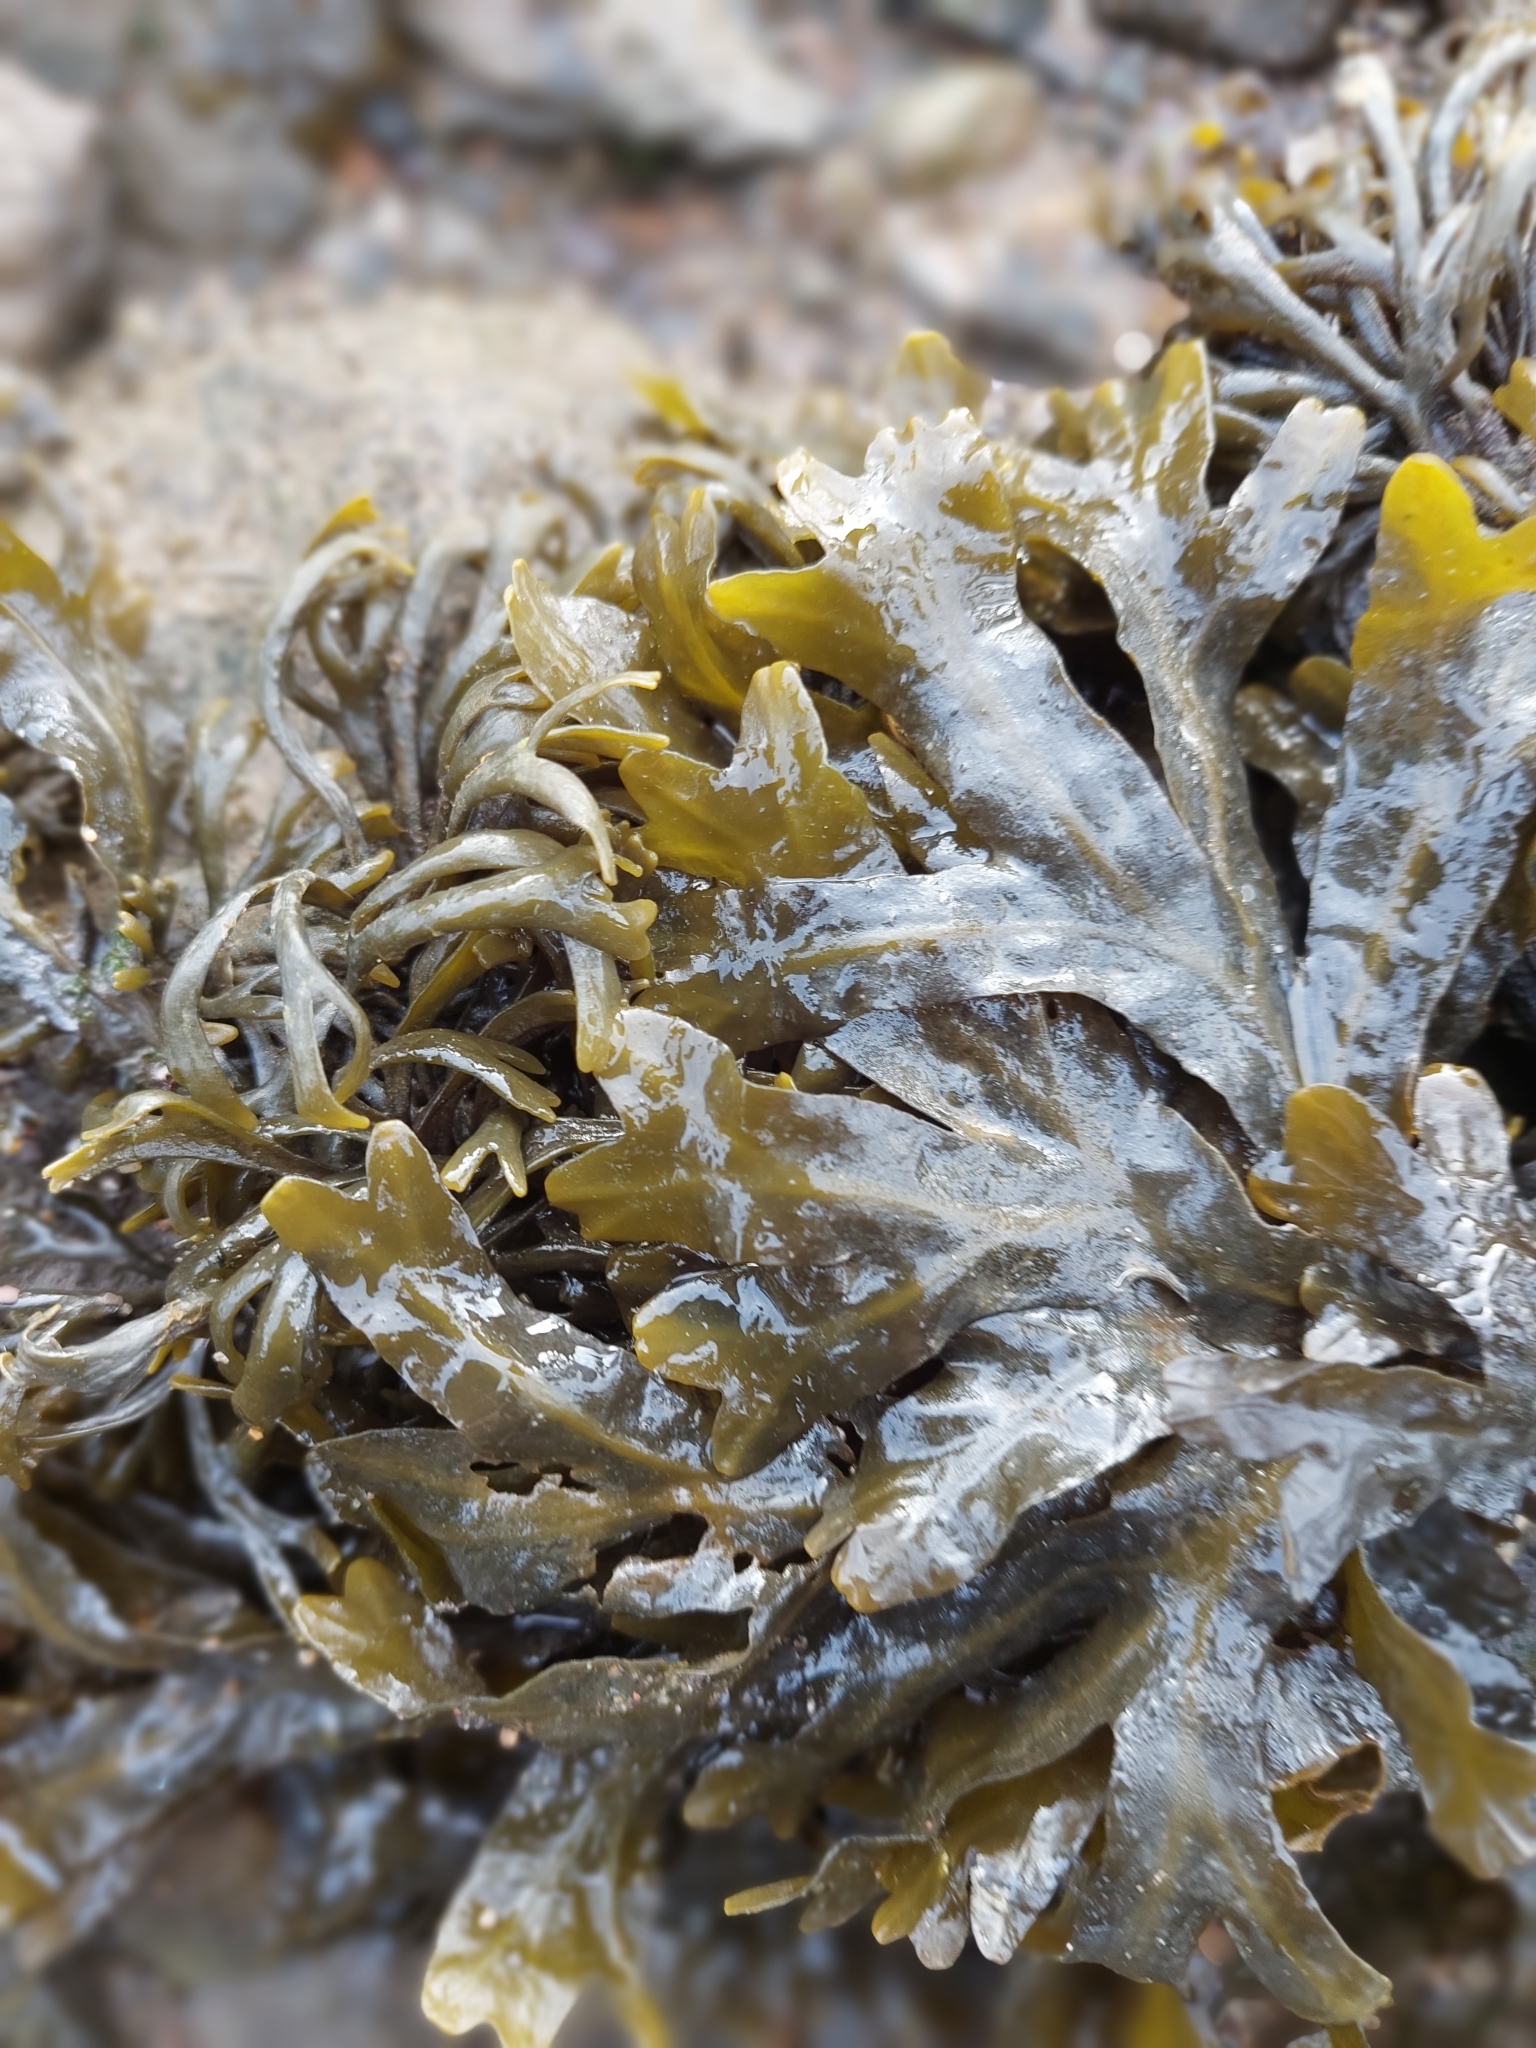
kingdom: Chromista
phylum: Ochrophyta
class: Phaeophyceae
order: Fucales
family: Fucaceae
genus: Pelvetia
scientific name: Pelvetia canaliculata
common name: Channelled wrack
